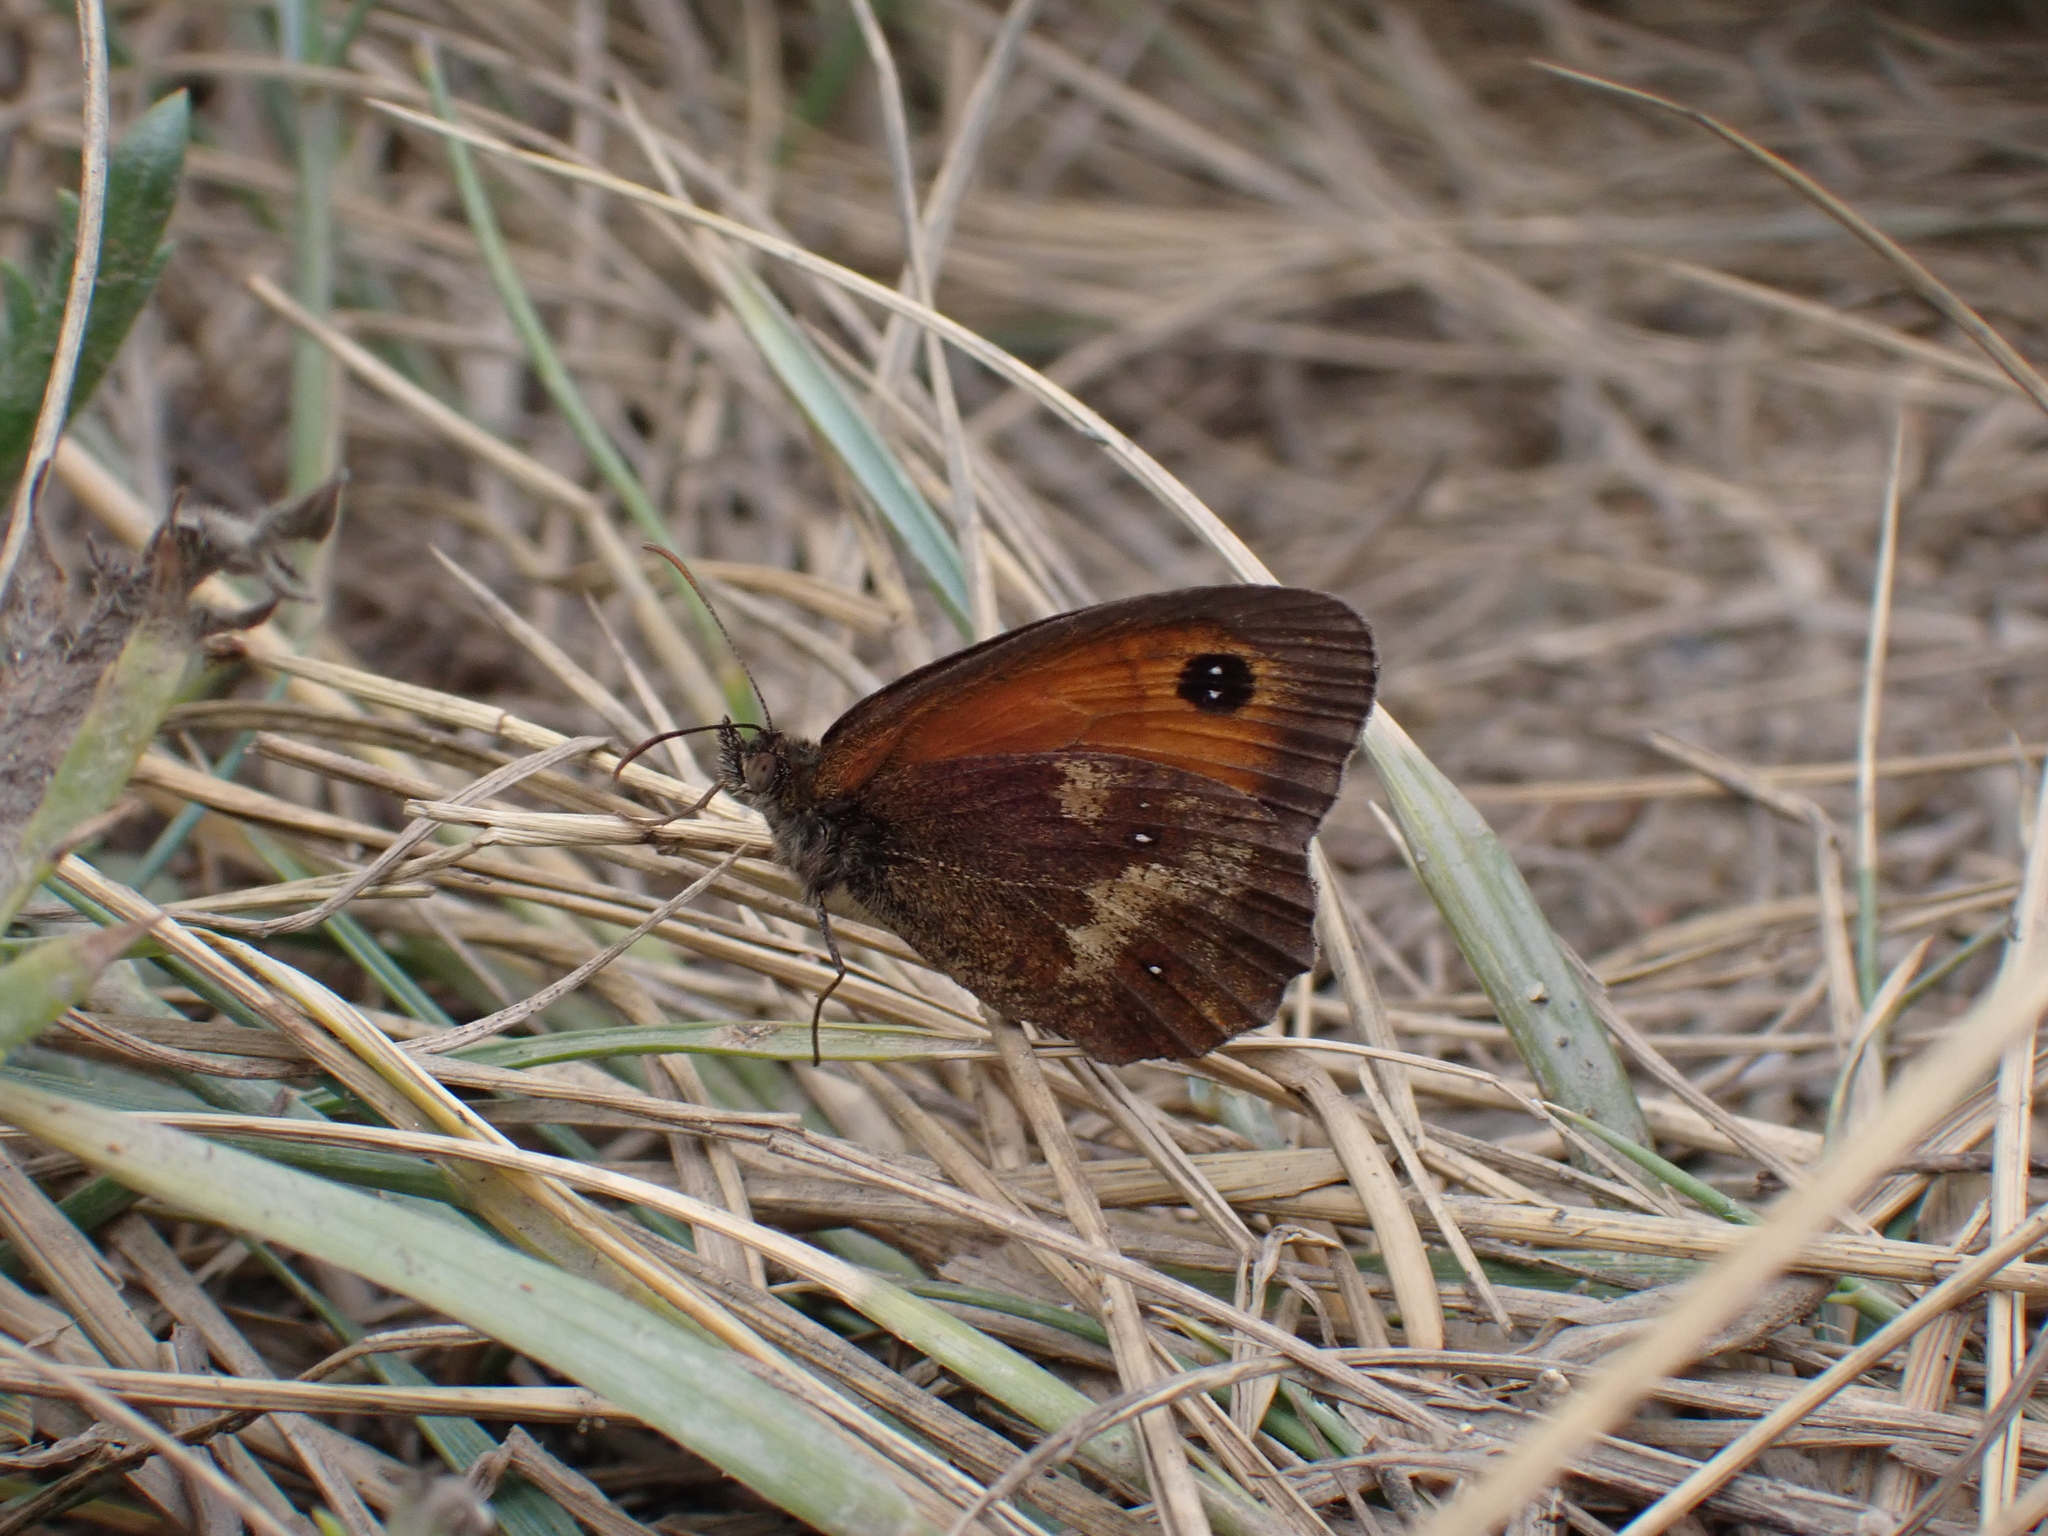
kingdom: Animalia
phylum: Arthropoda
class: Insecta
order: Lepidoptera
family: Nymphalidae
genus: Pyronia
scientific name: Pyronia tithonus
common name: Gatekeeper
